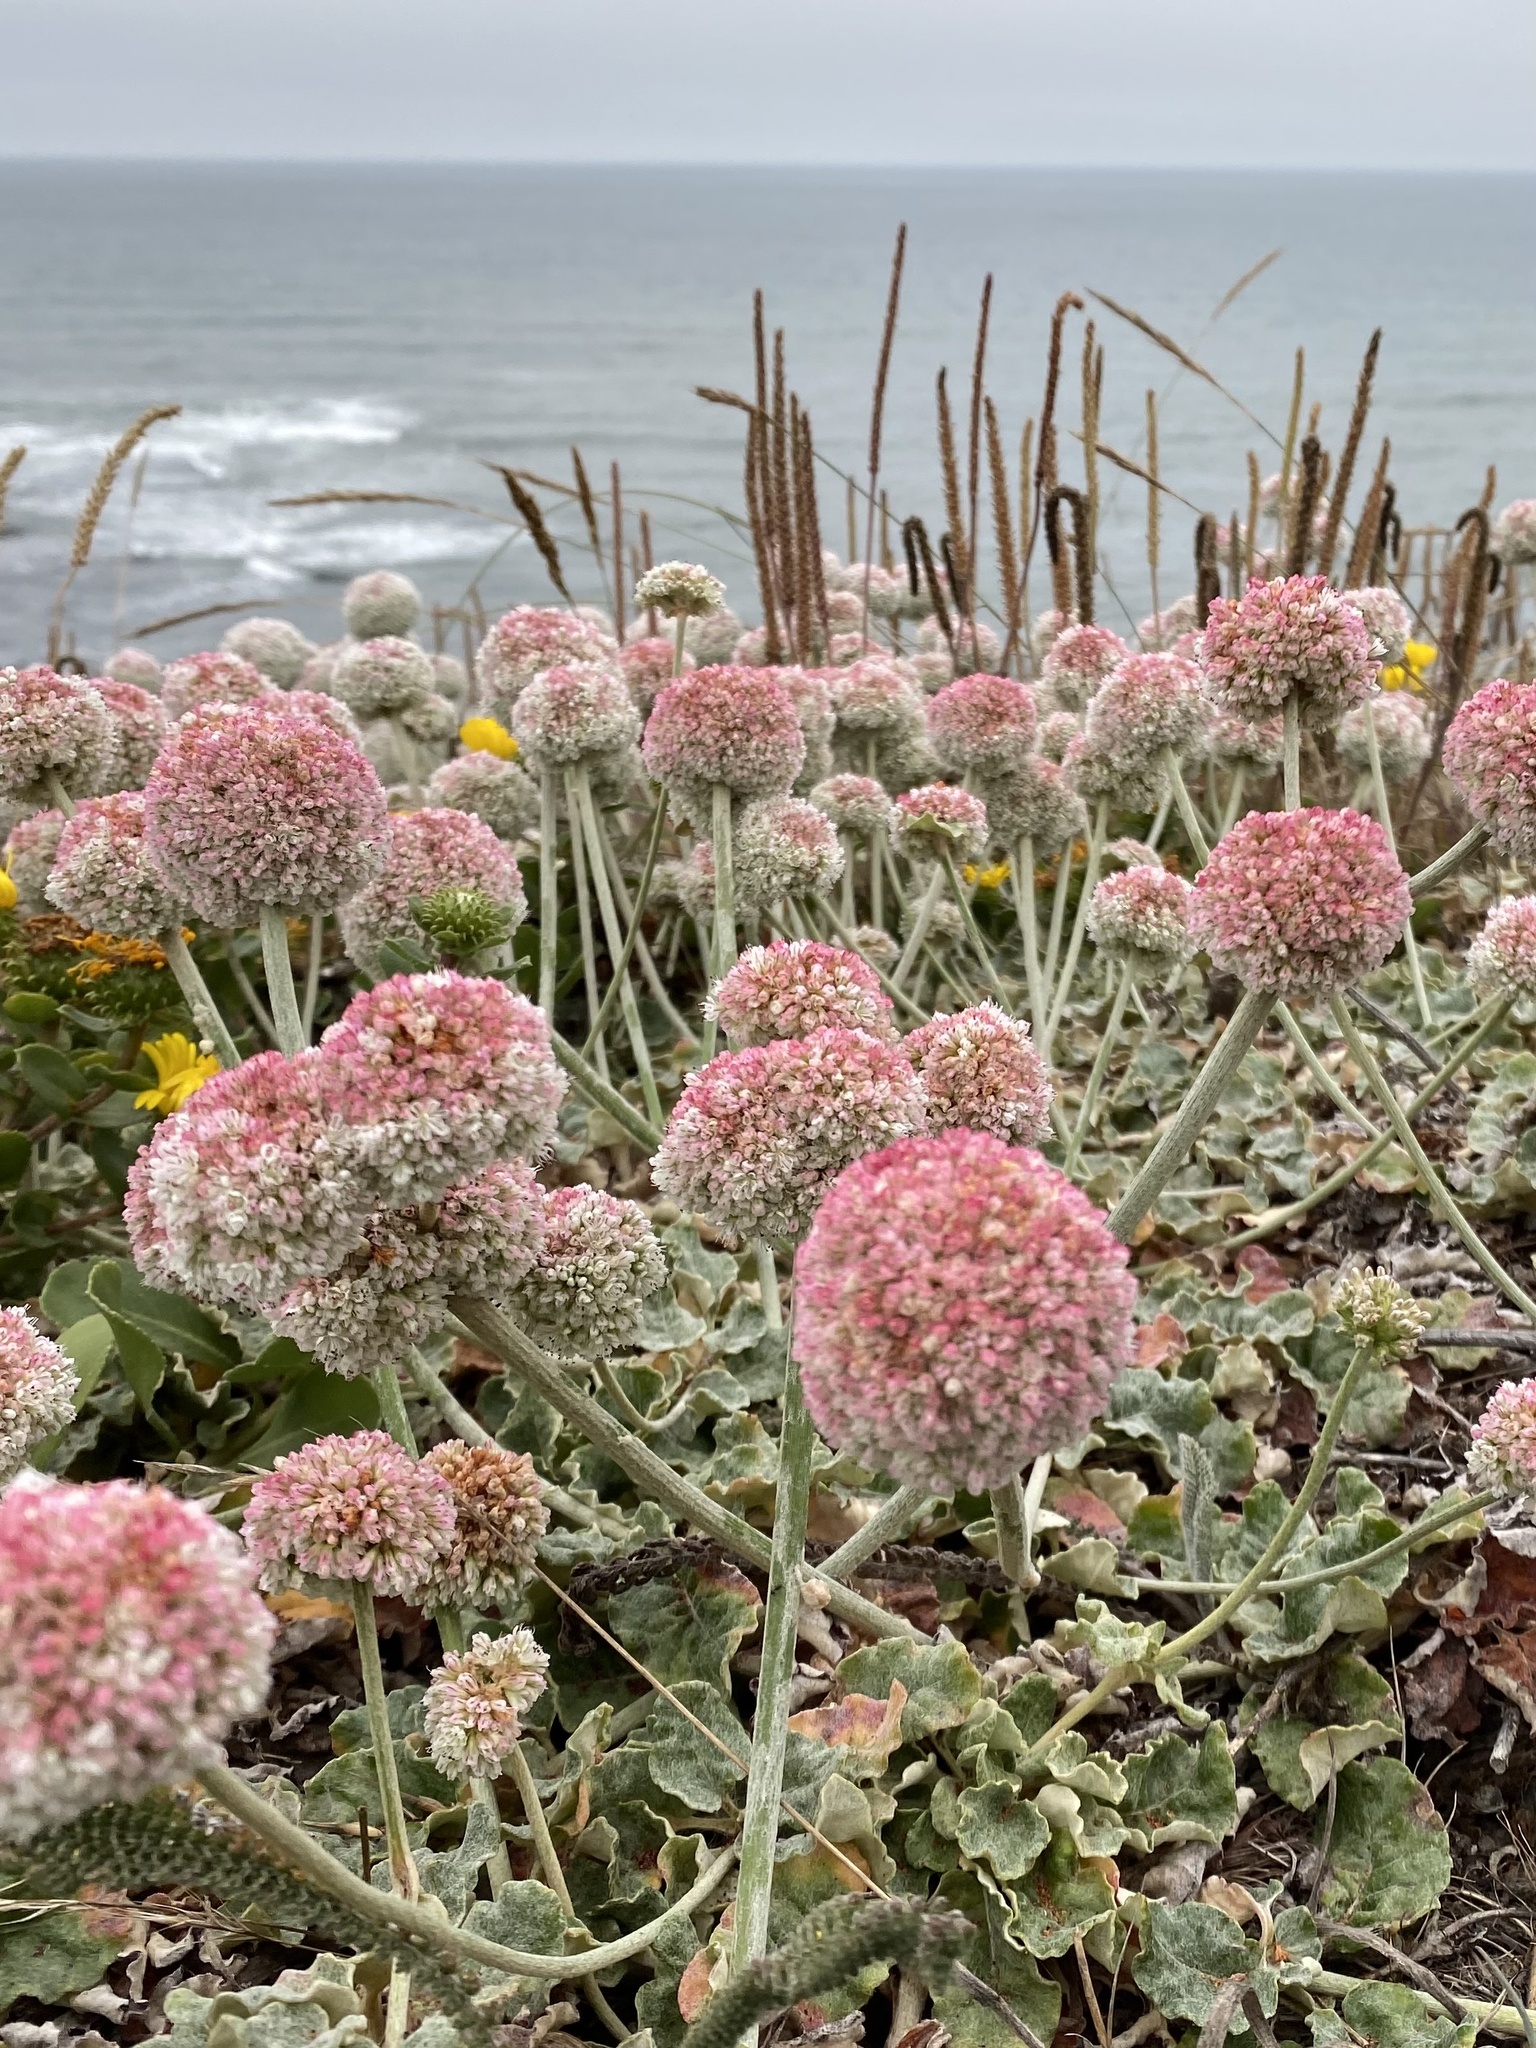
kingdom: Plantae
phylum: Tracheophyta
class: Magnoliopsida
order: Caryophyllales
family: Polygonaceae
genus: Eriogonum
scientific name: Eriogonum latifolium
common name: Seaside wild buckwheat
